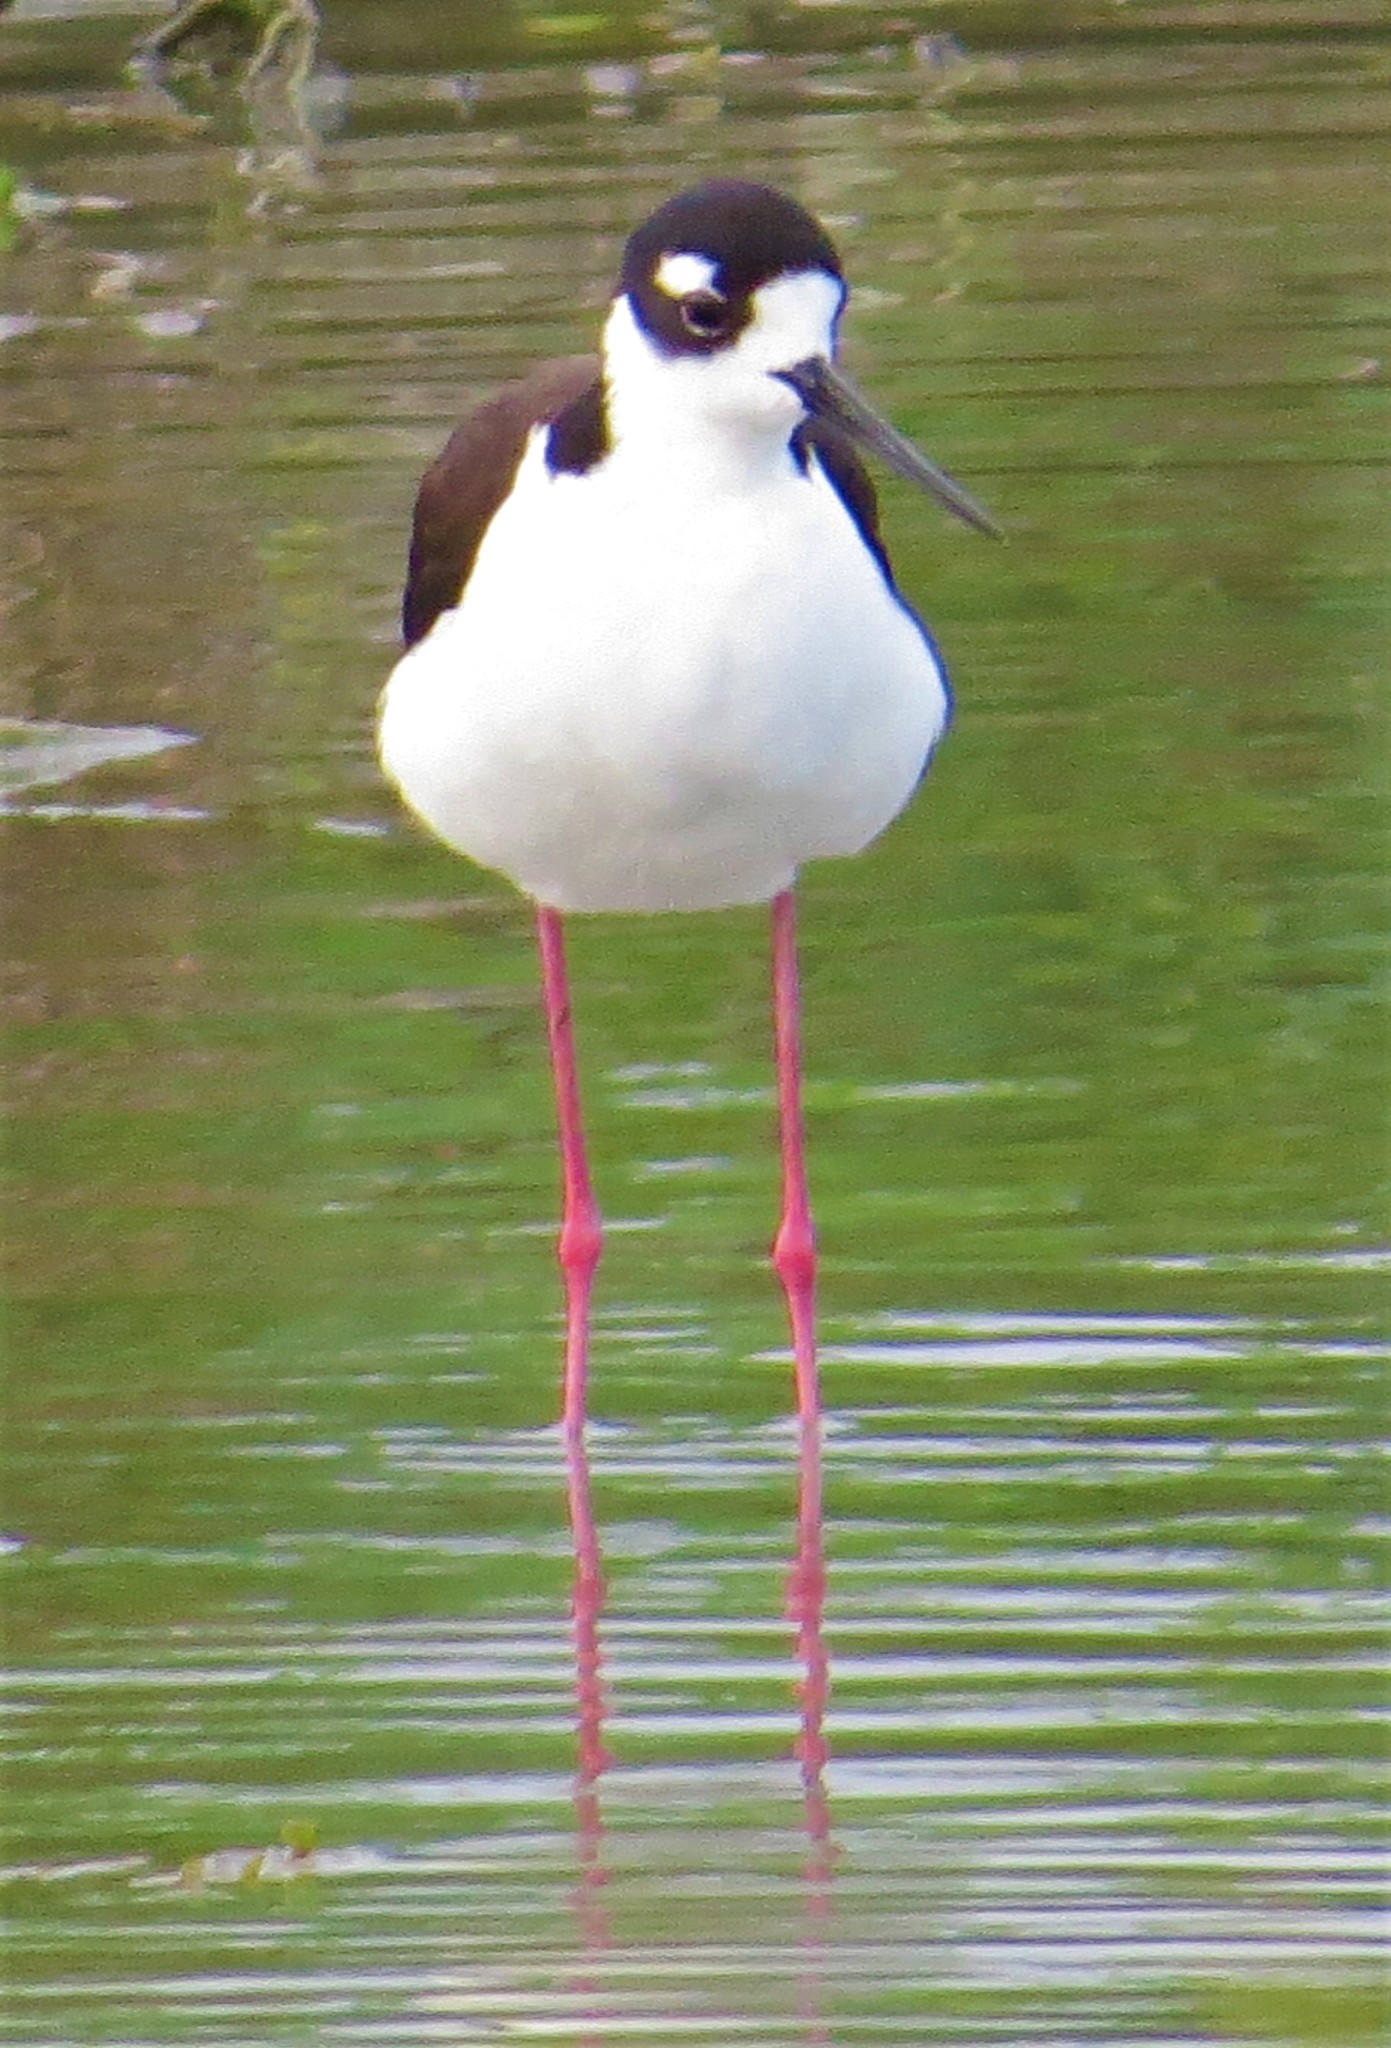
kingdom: Animalia
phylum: Chordata
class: Aves
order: Charadriiformes
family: Recurvirostridae
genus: Himantopus
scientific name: Himantopus mexicanus
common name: Black-necked stilt
